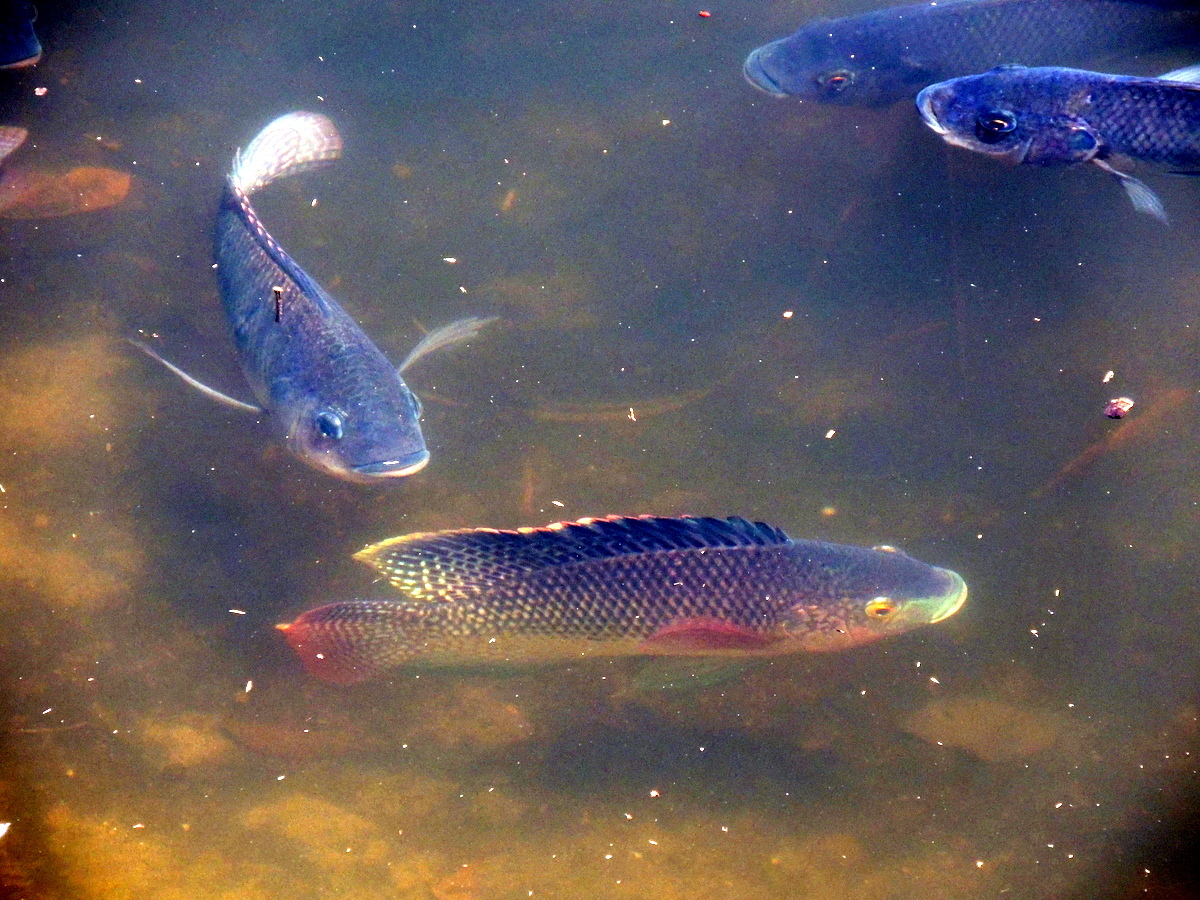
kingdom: Animalia
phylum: Chordata
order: Perciformes
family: Cichlidae
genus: Oreochromis
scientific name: Oreochromis niloticus
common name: Nile tilapia
